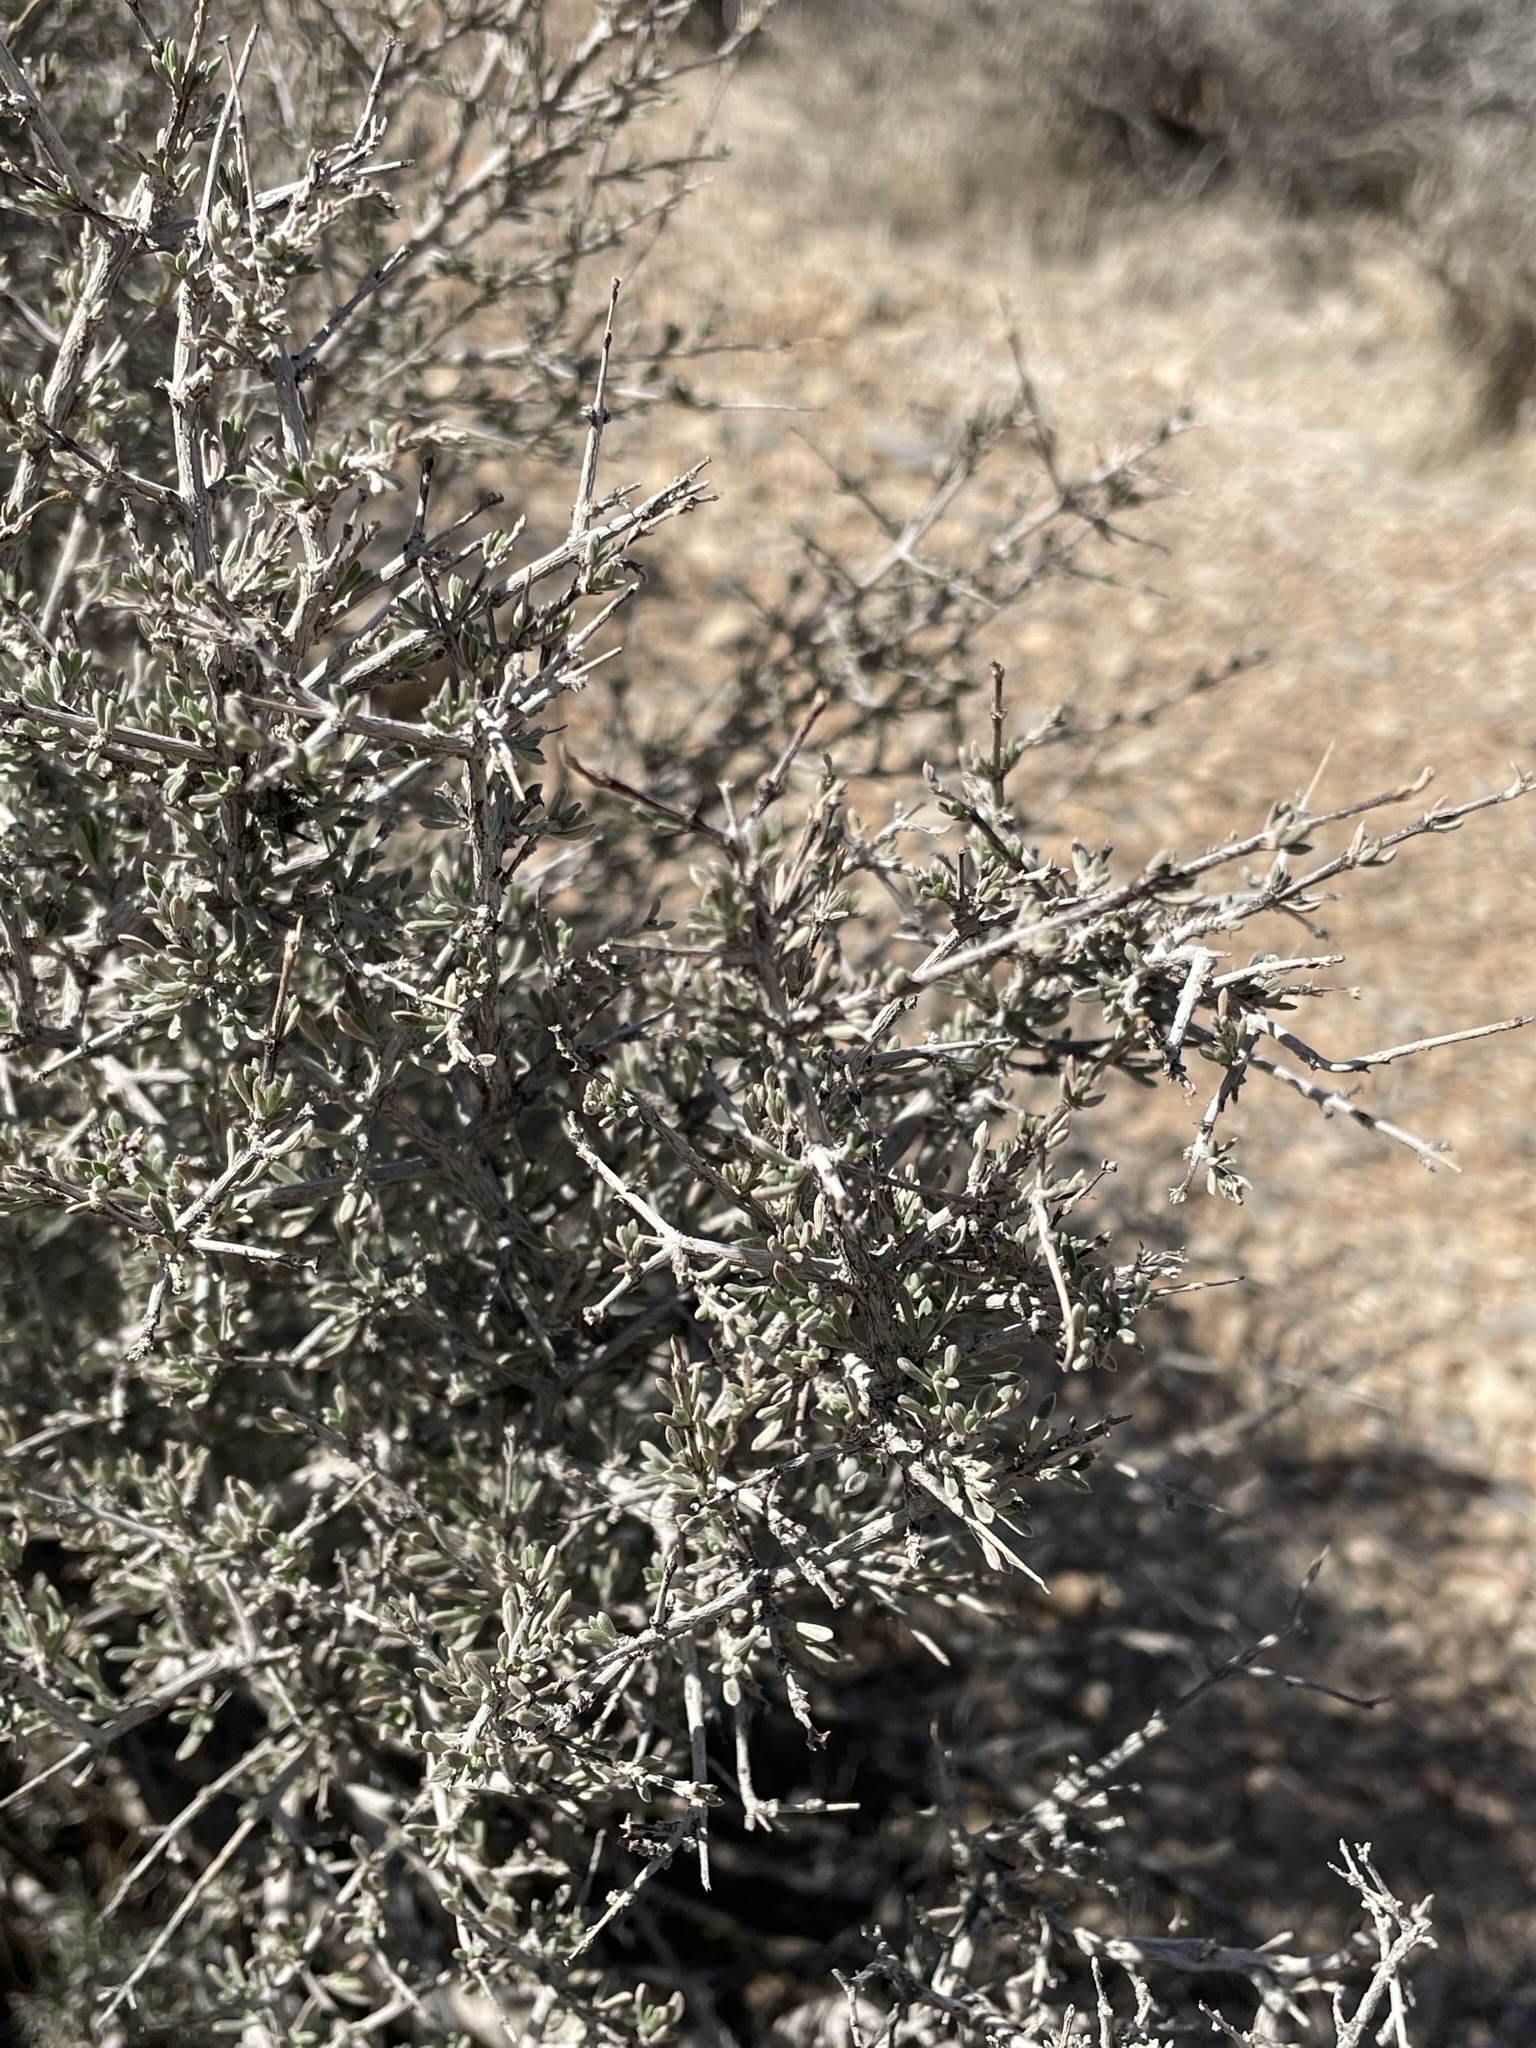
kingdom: Plantae
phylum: Tracheophyta
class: Magnoliopsida
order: Rosales
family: Rosaceae
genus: Coleogyne
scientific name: Coleogyne ramosissima
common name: Blackbrush
